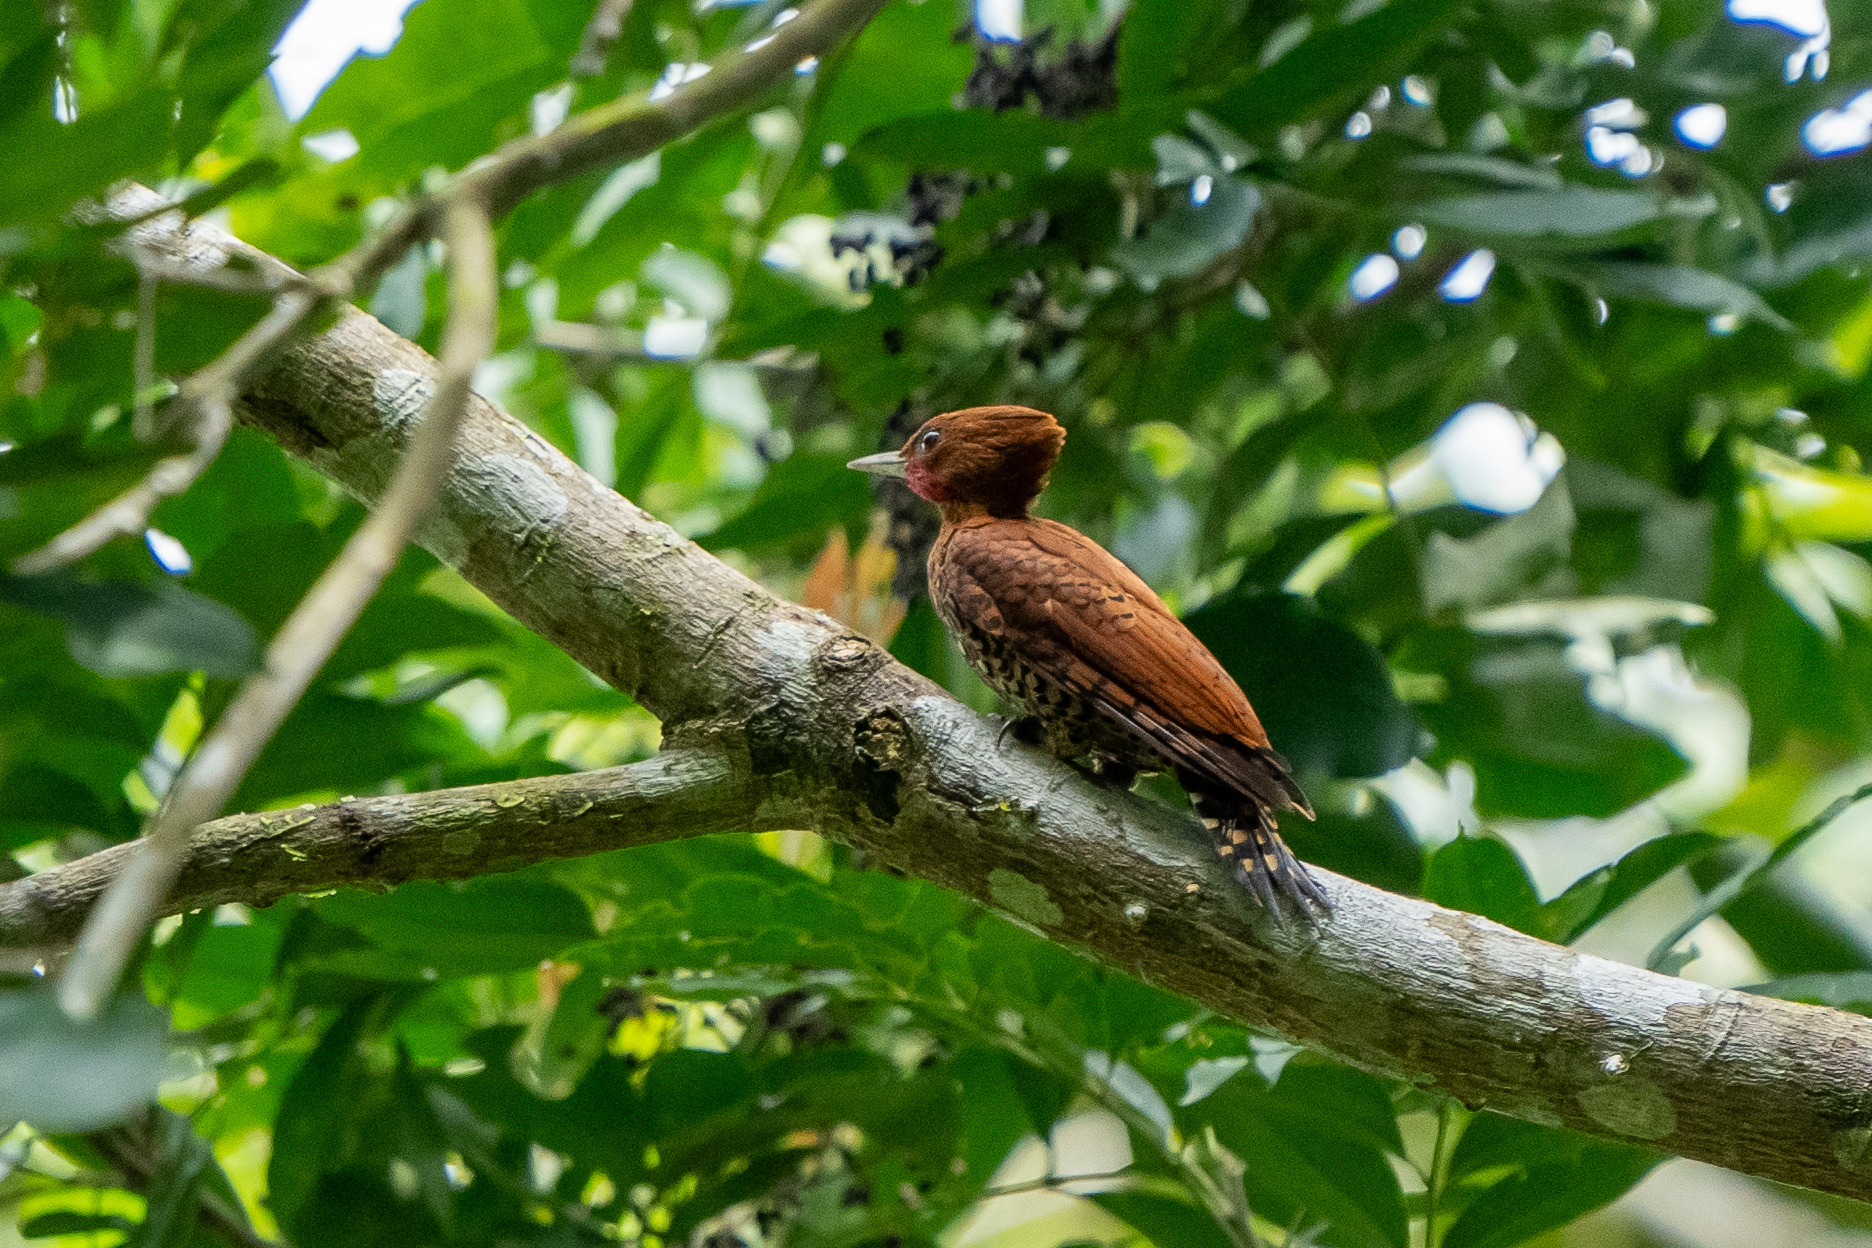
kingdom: Animalia
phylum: Chordata
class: Aves
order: Piciformes
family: Picidae
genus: Celeus
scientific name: Celeus loricatus
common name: Cinnamon woodpecker
